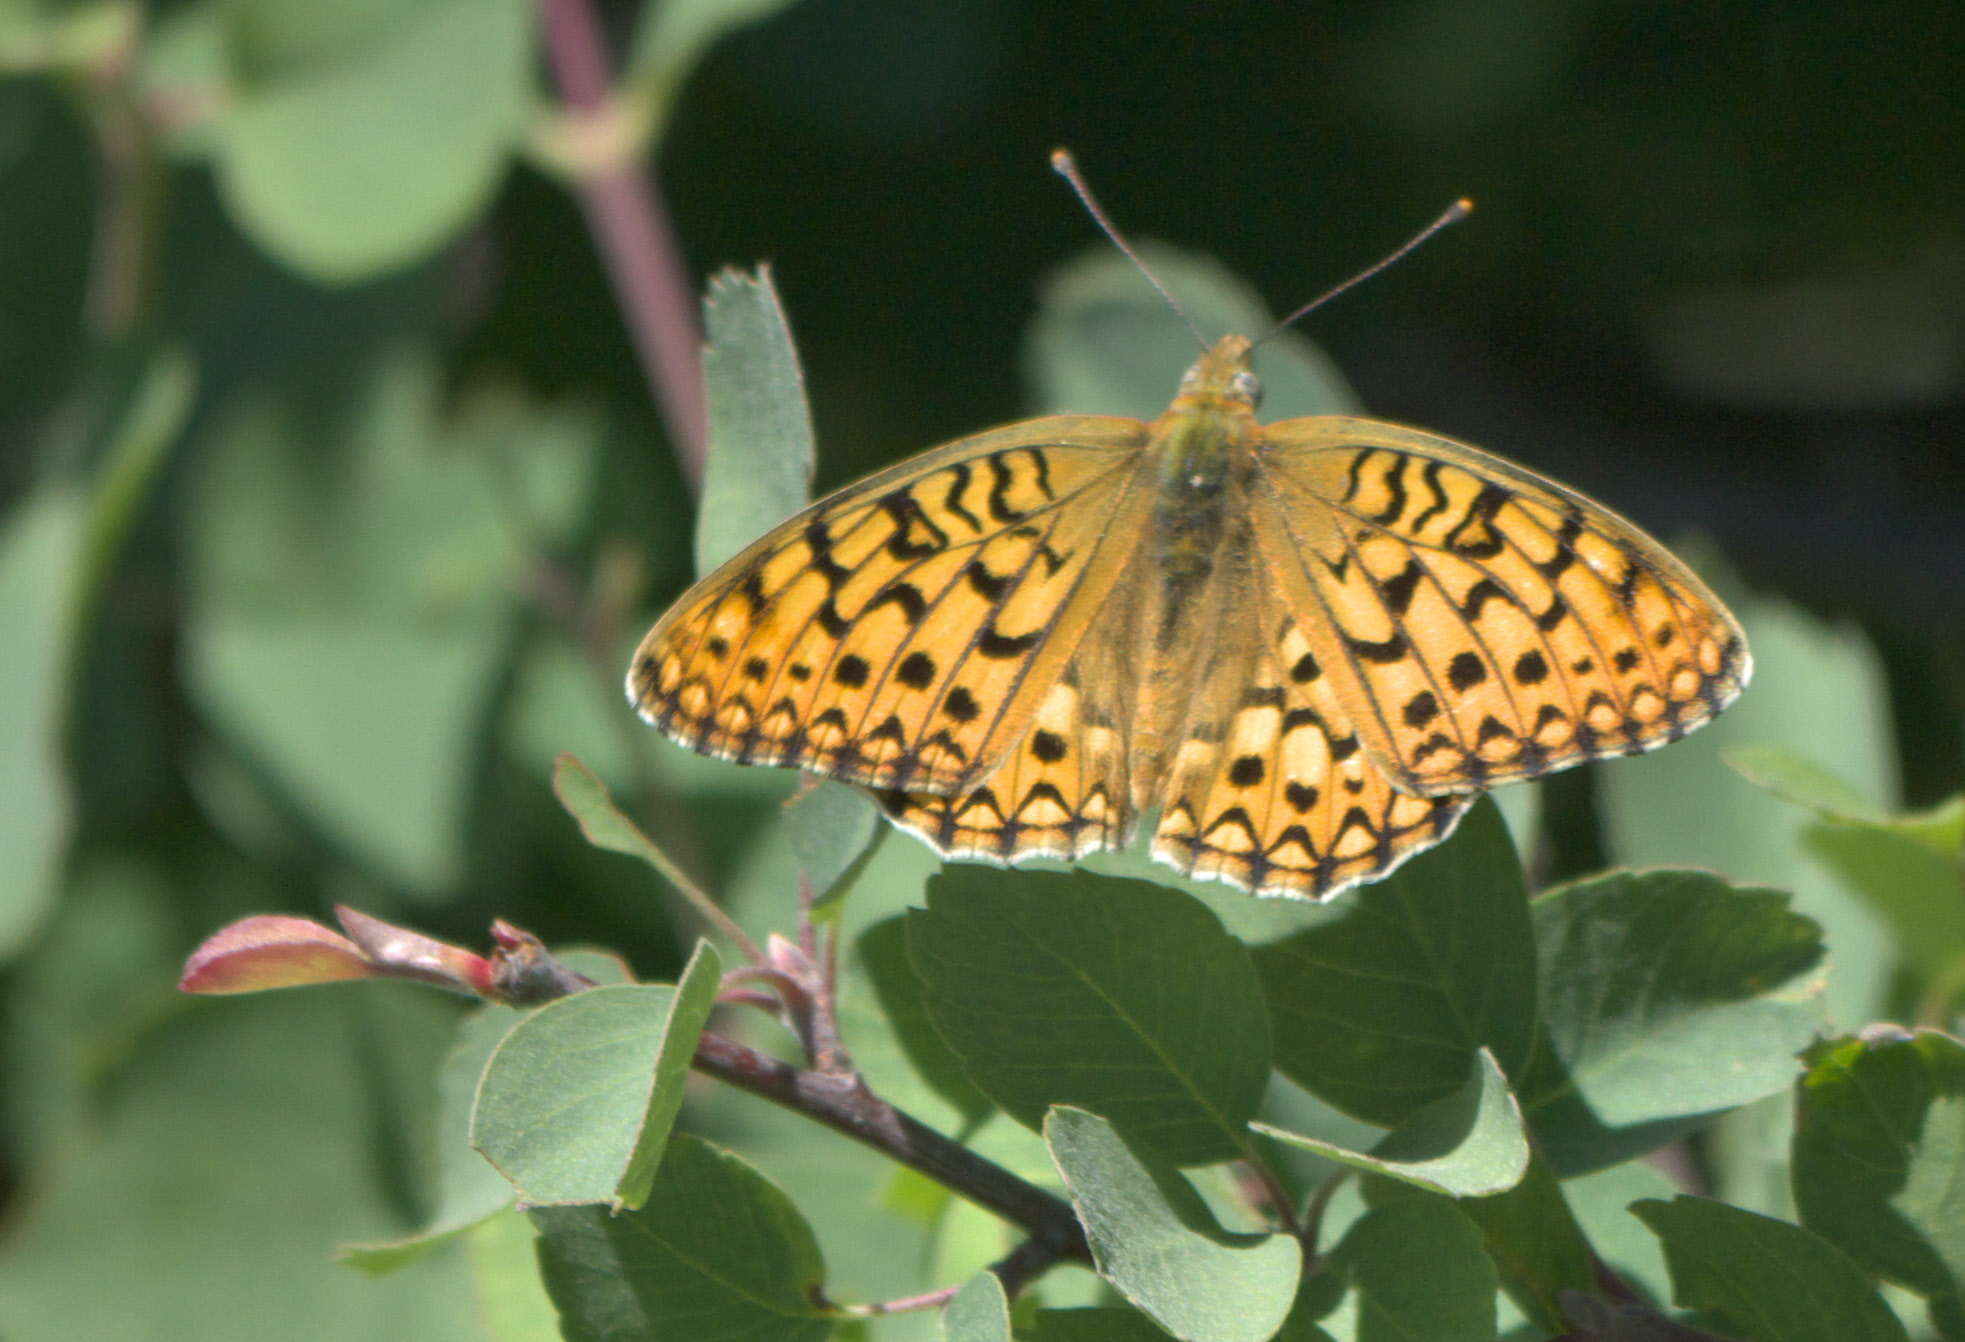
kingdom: Animalia
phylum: Arthropoda
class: Insecta
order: Lepidoptera
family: Nymphalidae
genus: Speyeria
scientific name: Speyeria callippe
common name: Callippe fritillary
